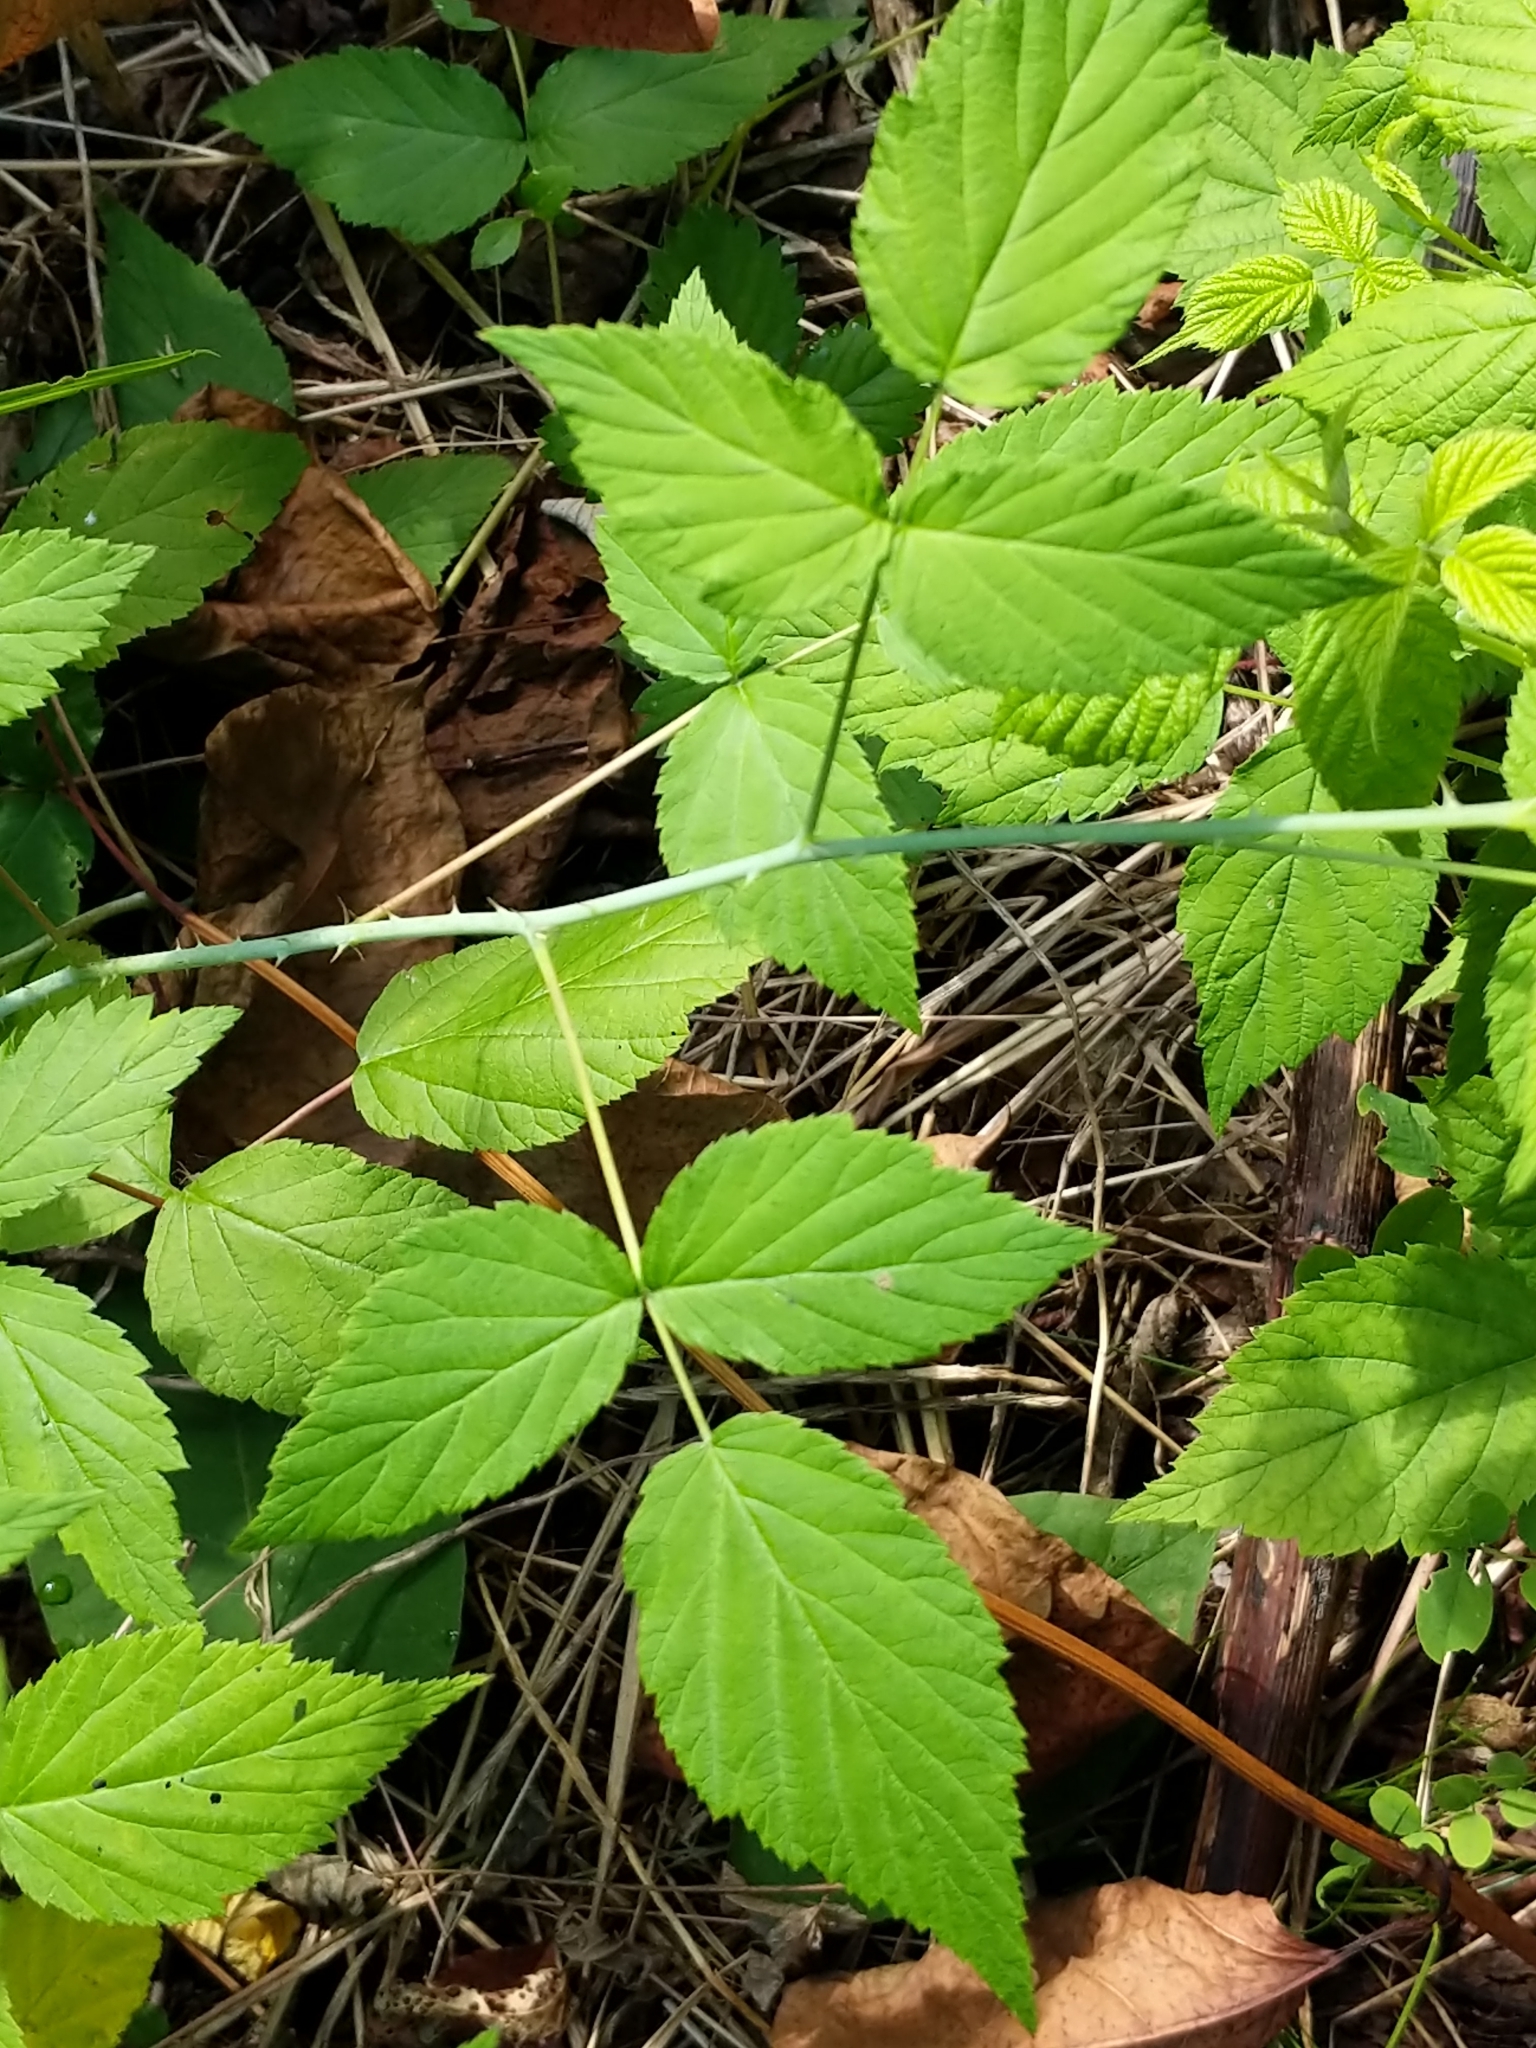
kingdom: Plantae
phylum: Tracheophyta
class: Magnoliopsida
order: Rosales
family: Rosaceae
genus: Rubus
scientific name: Rubus occidentalis
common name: Black raspberry
